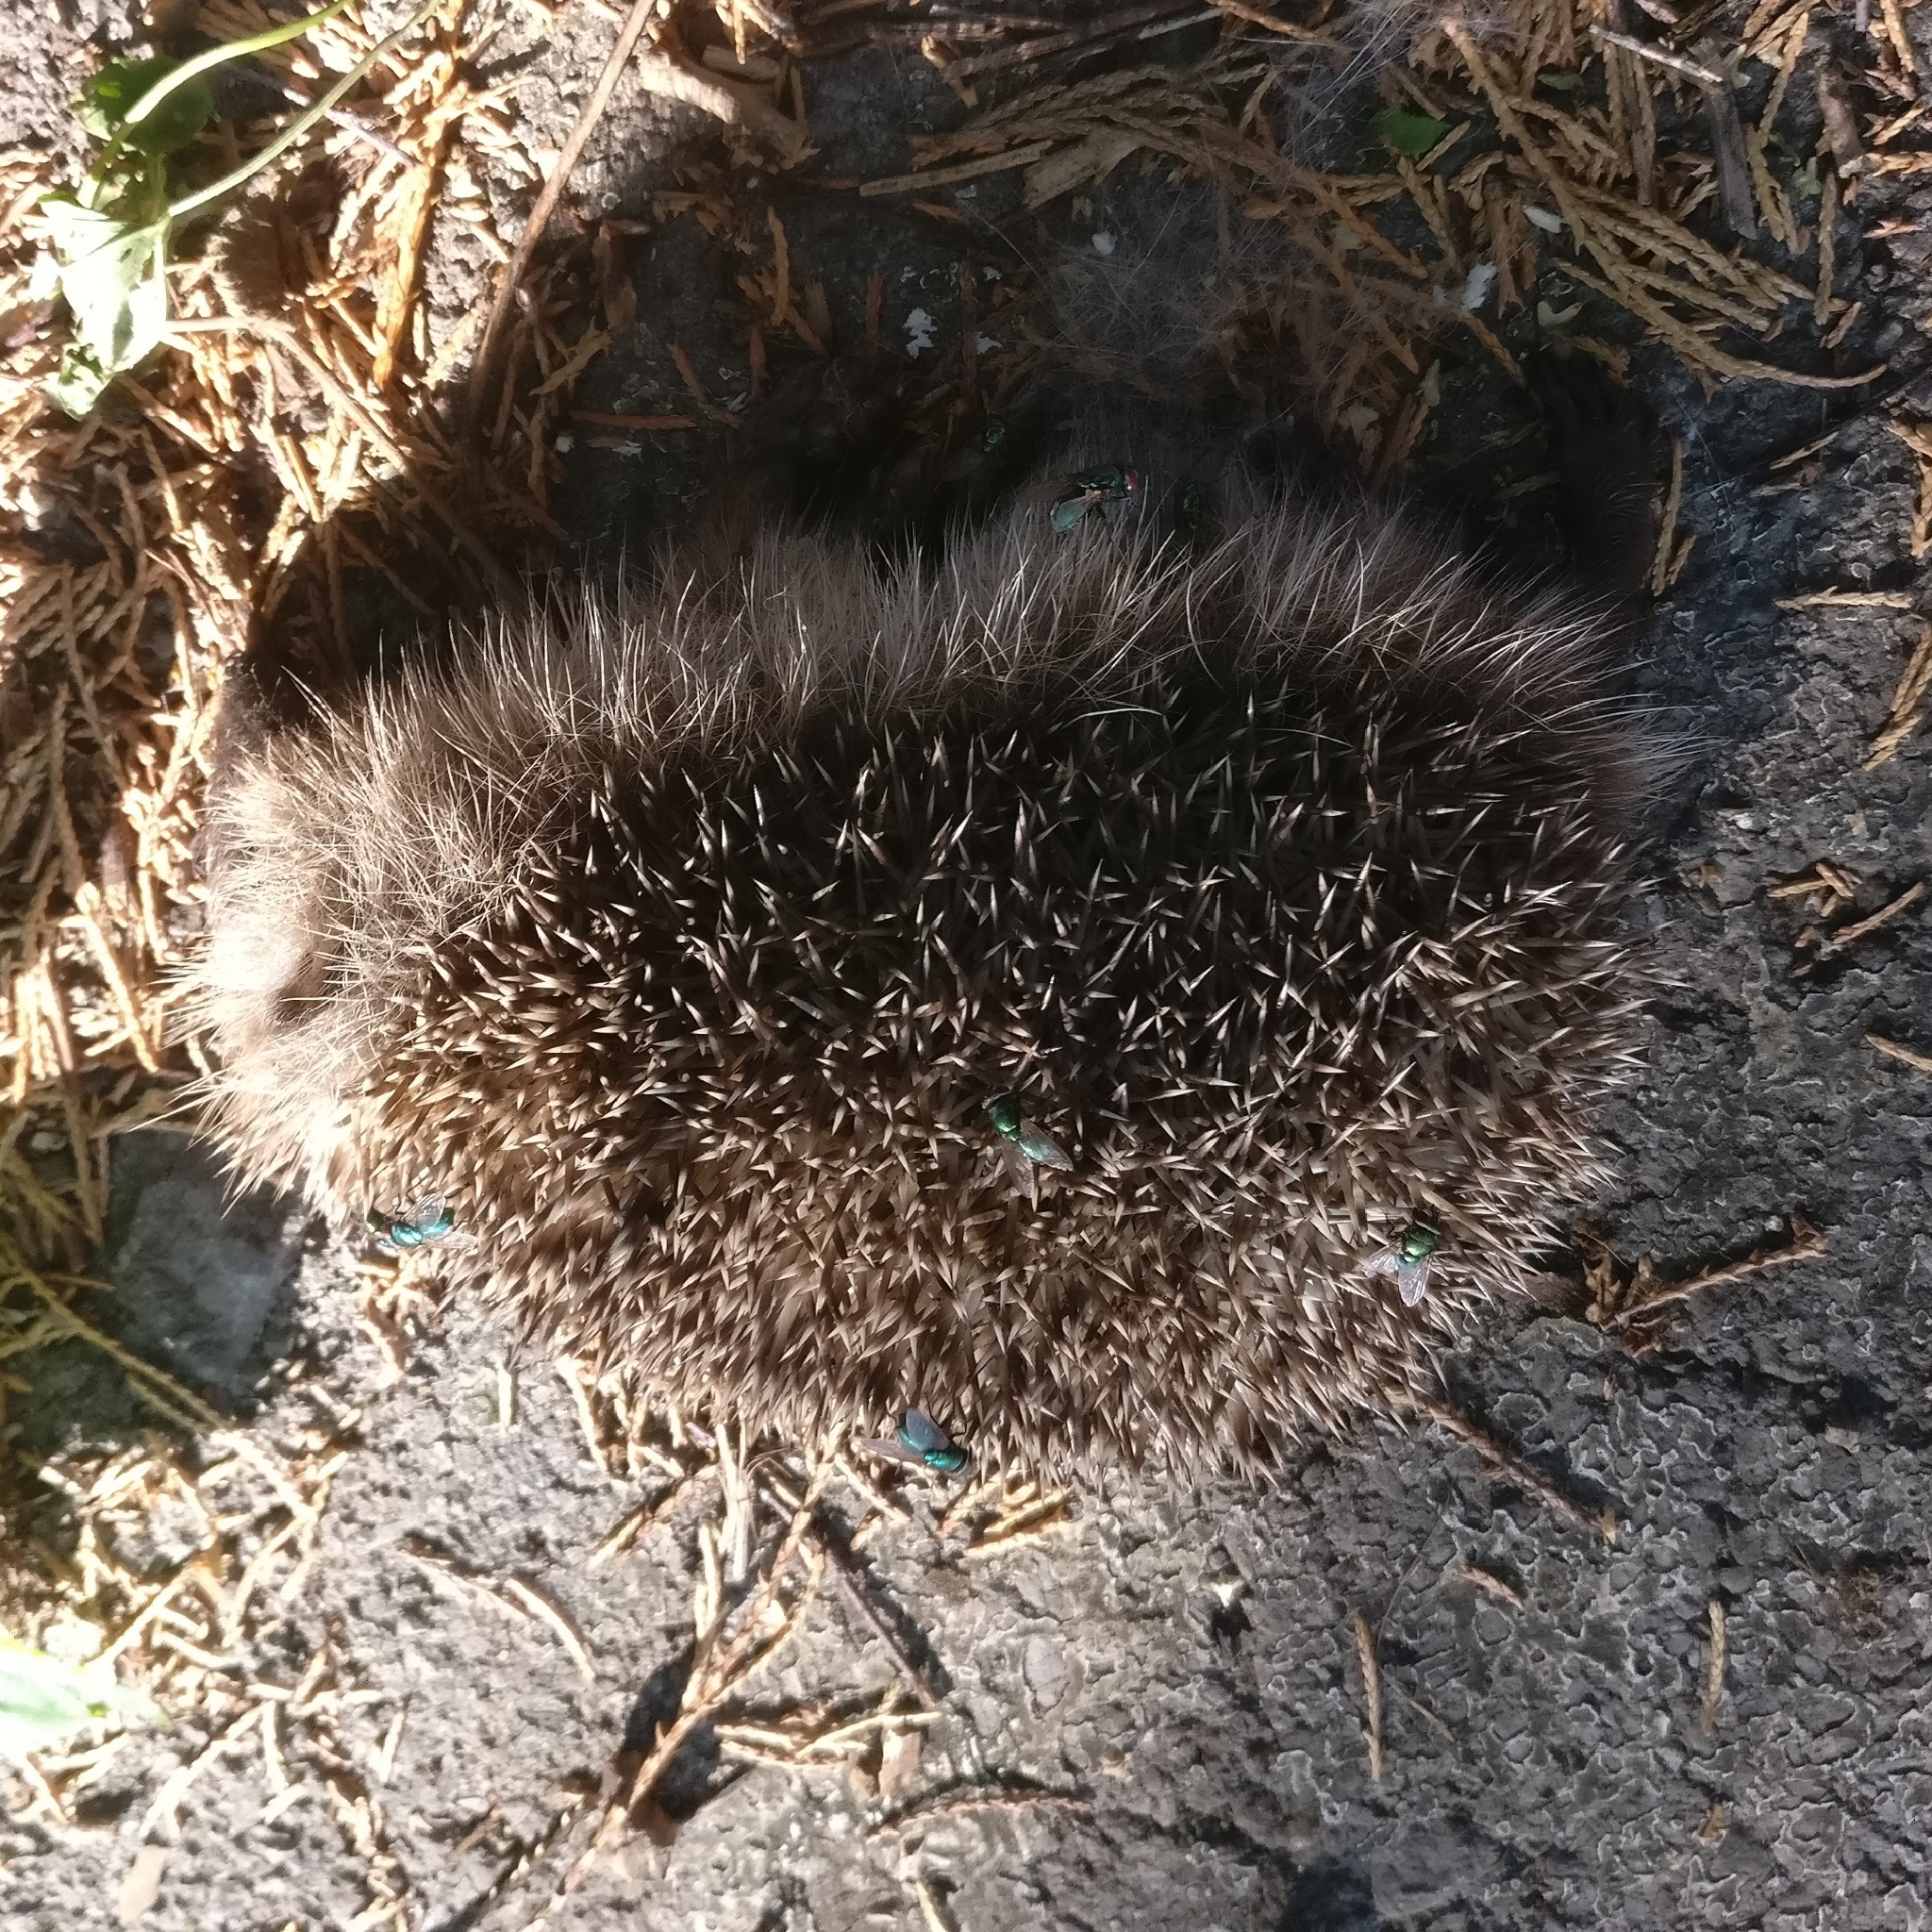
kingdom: Animalia
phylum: Chordata
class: Mammalia
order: Erinaceomorpha
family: Erinaceidae
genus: Erinaceus
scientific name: Erinaceus europaeus
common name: West european hedgehog
